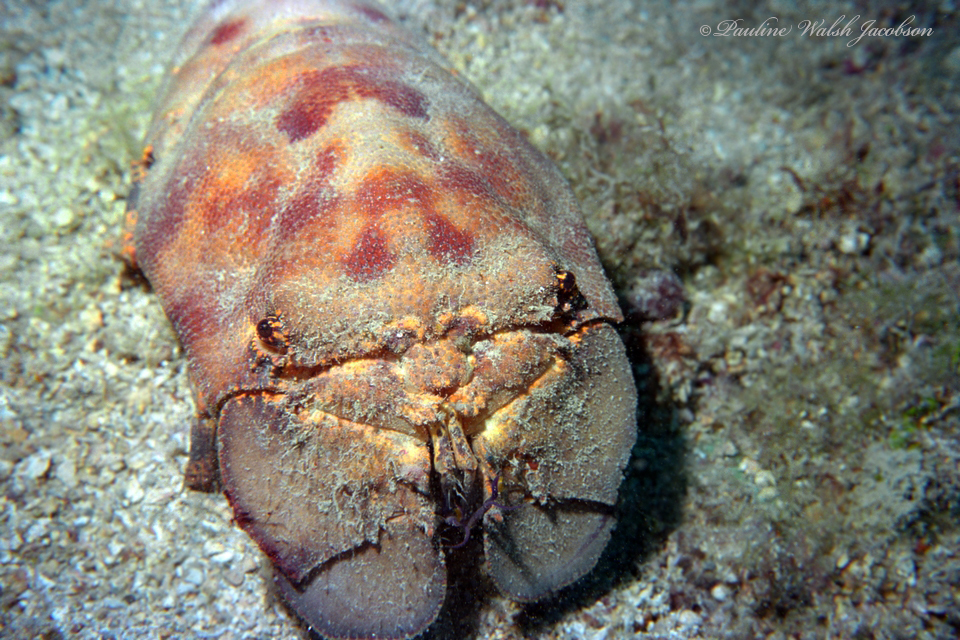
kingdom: Animalia
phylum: Arthropoda
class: Malacostraca
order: Decapoda
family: Scyllaridae
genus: Scyllarides
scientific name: Scyllarides aequinoctialis
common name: Spanish slipper lobster
